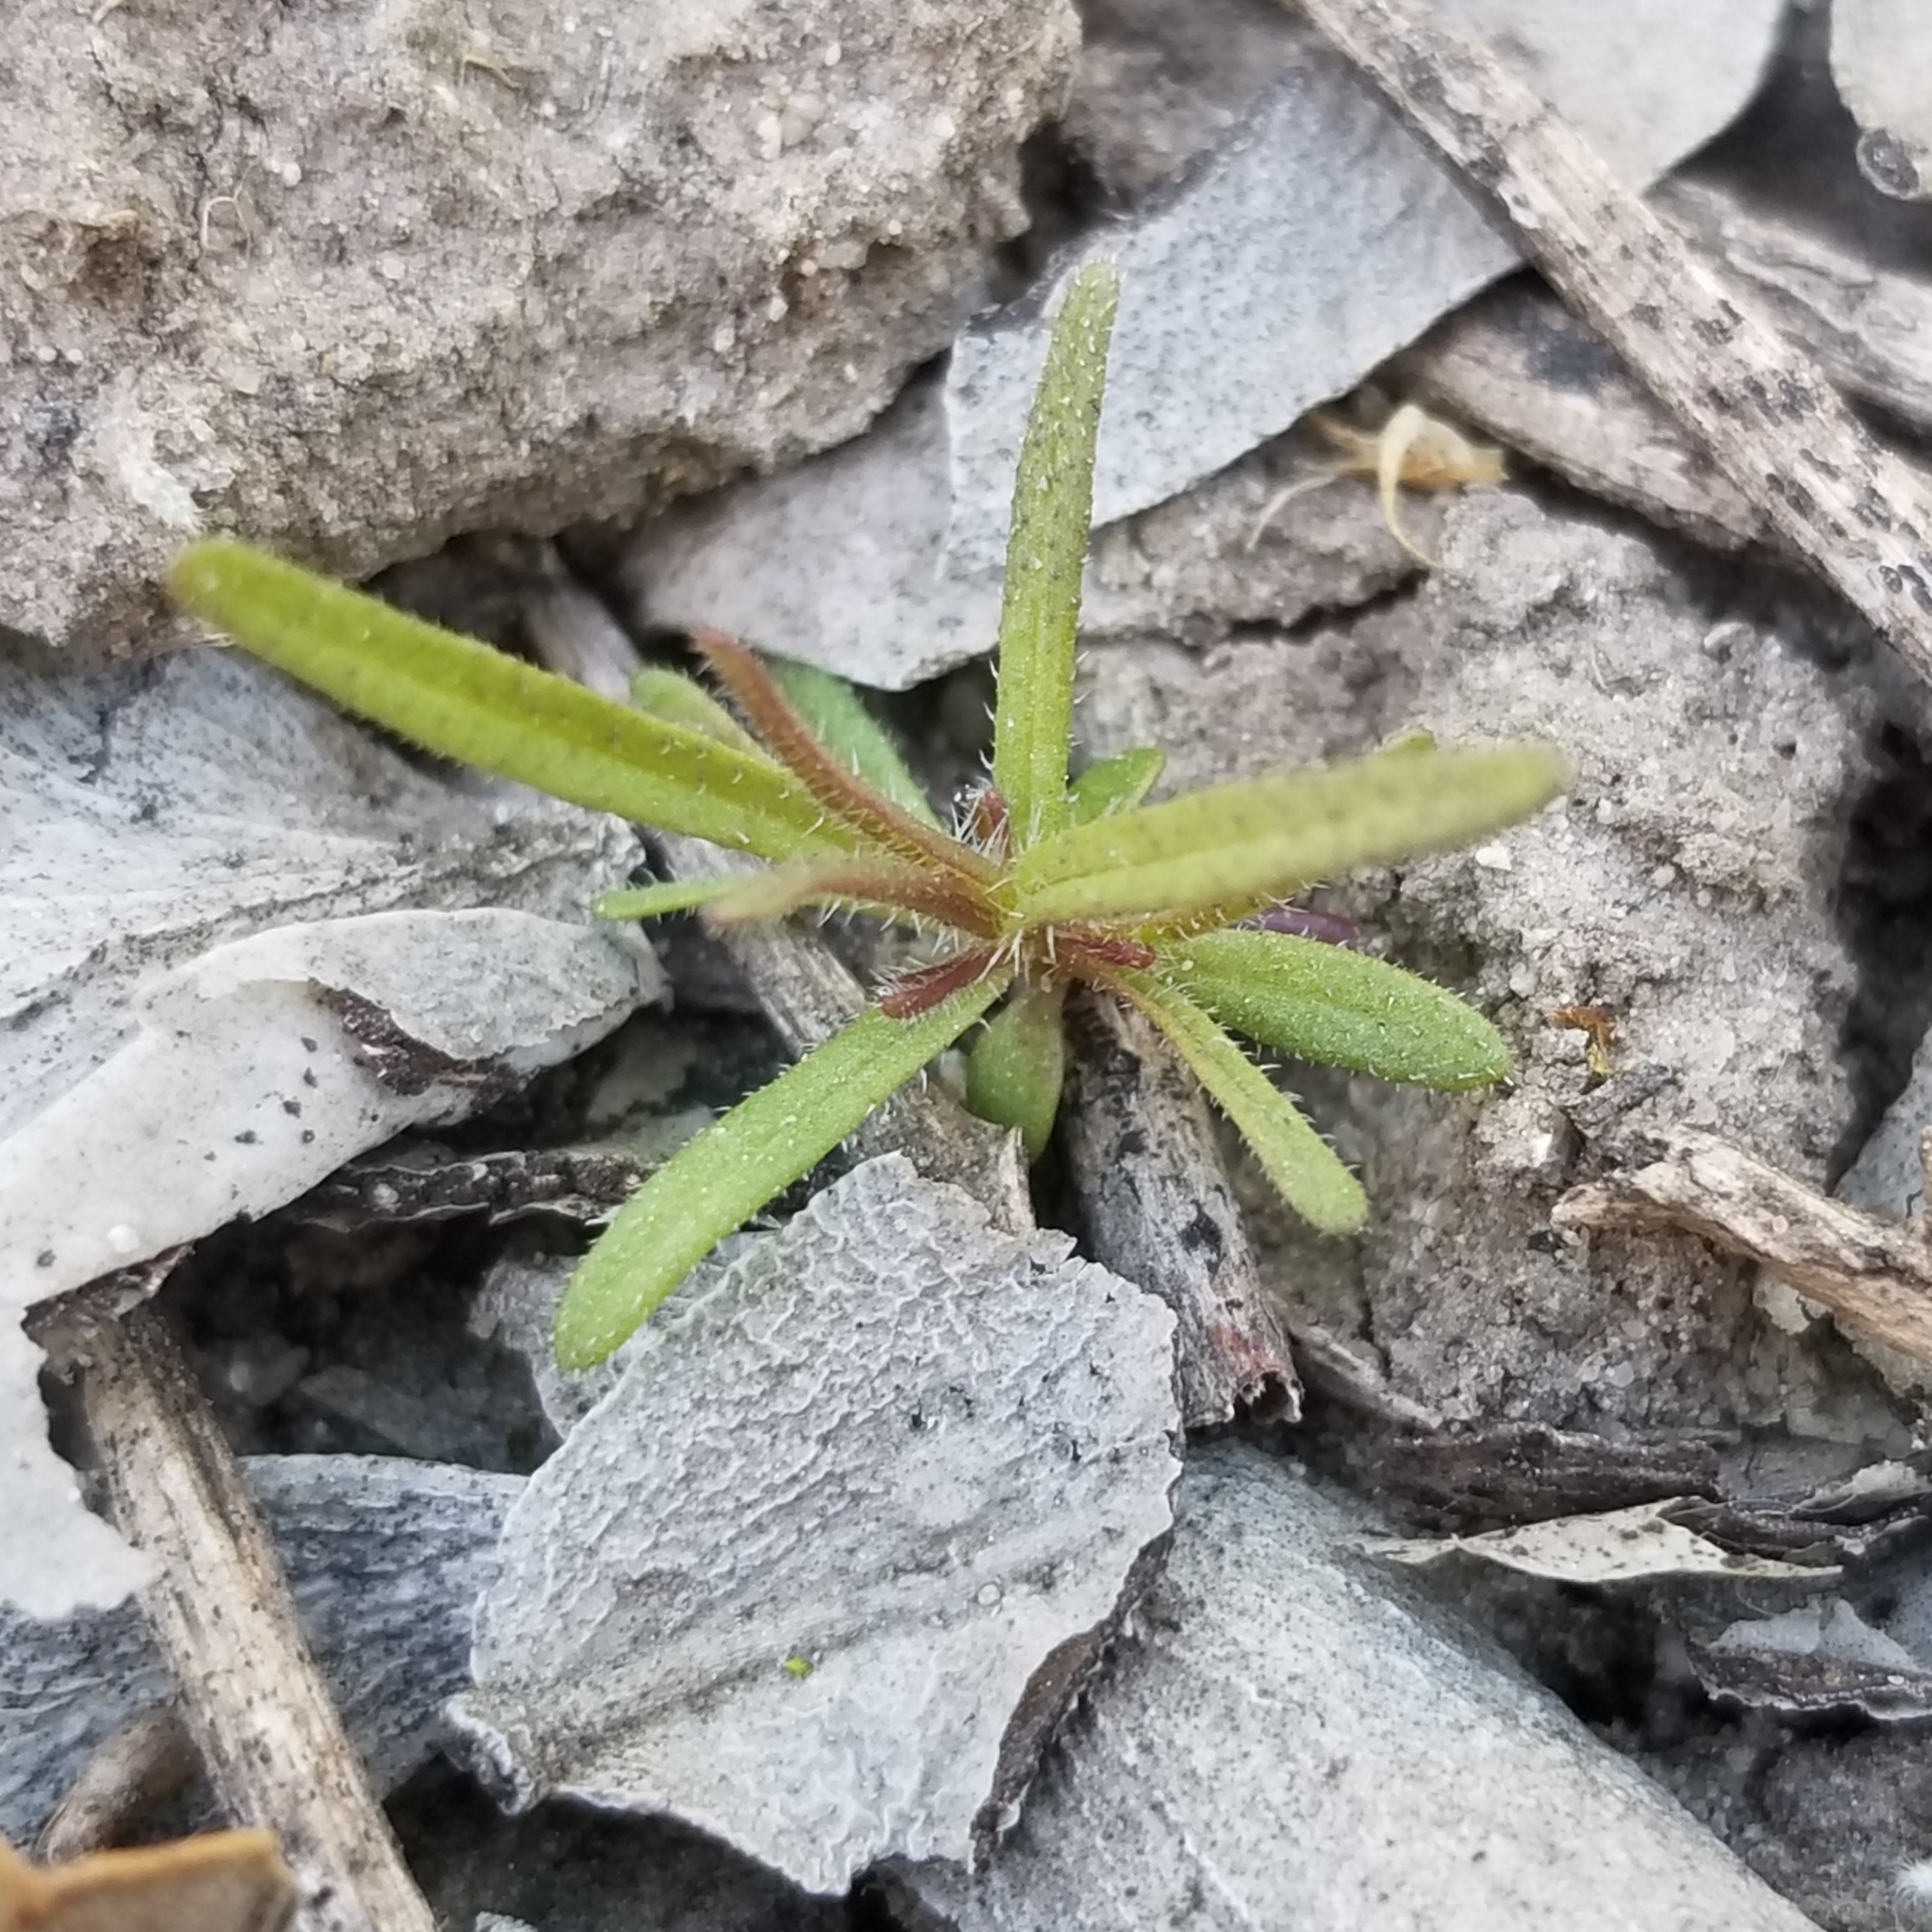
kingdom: Plantae
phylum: Tracheophyta
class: Magnoliopsida
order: Lamiales
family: Orobanchaceae
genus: Dicranostegia
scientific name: Dicranostegia orcuttiana
